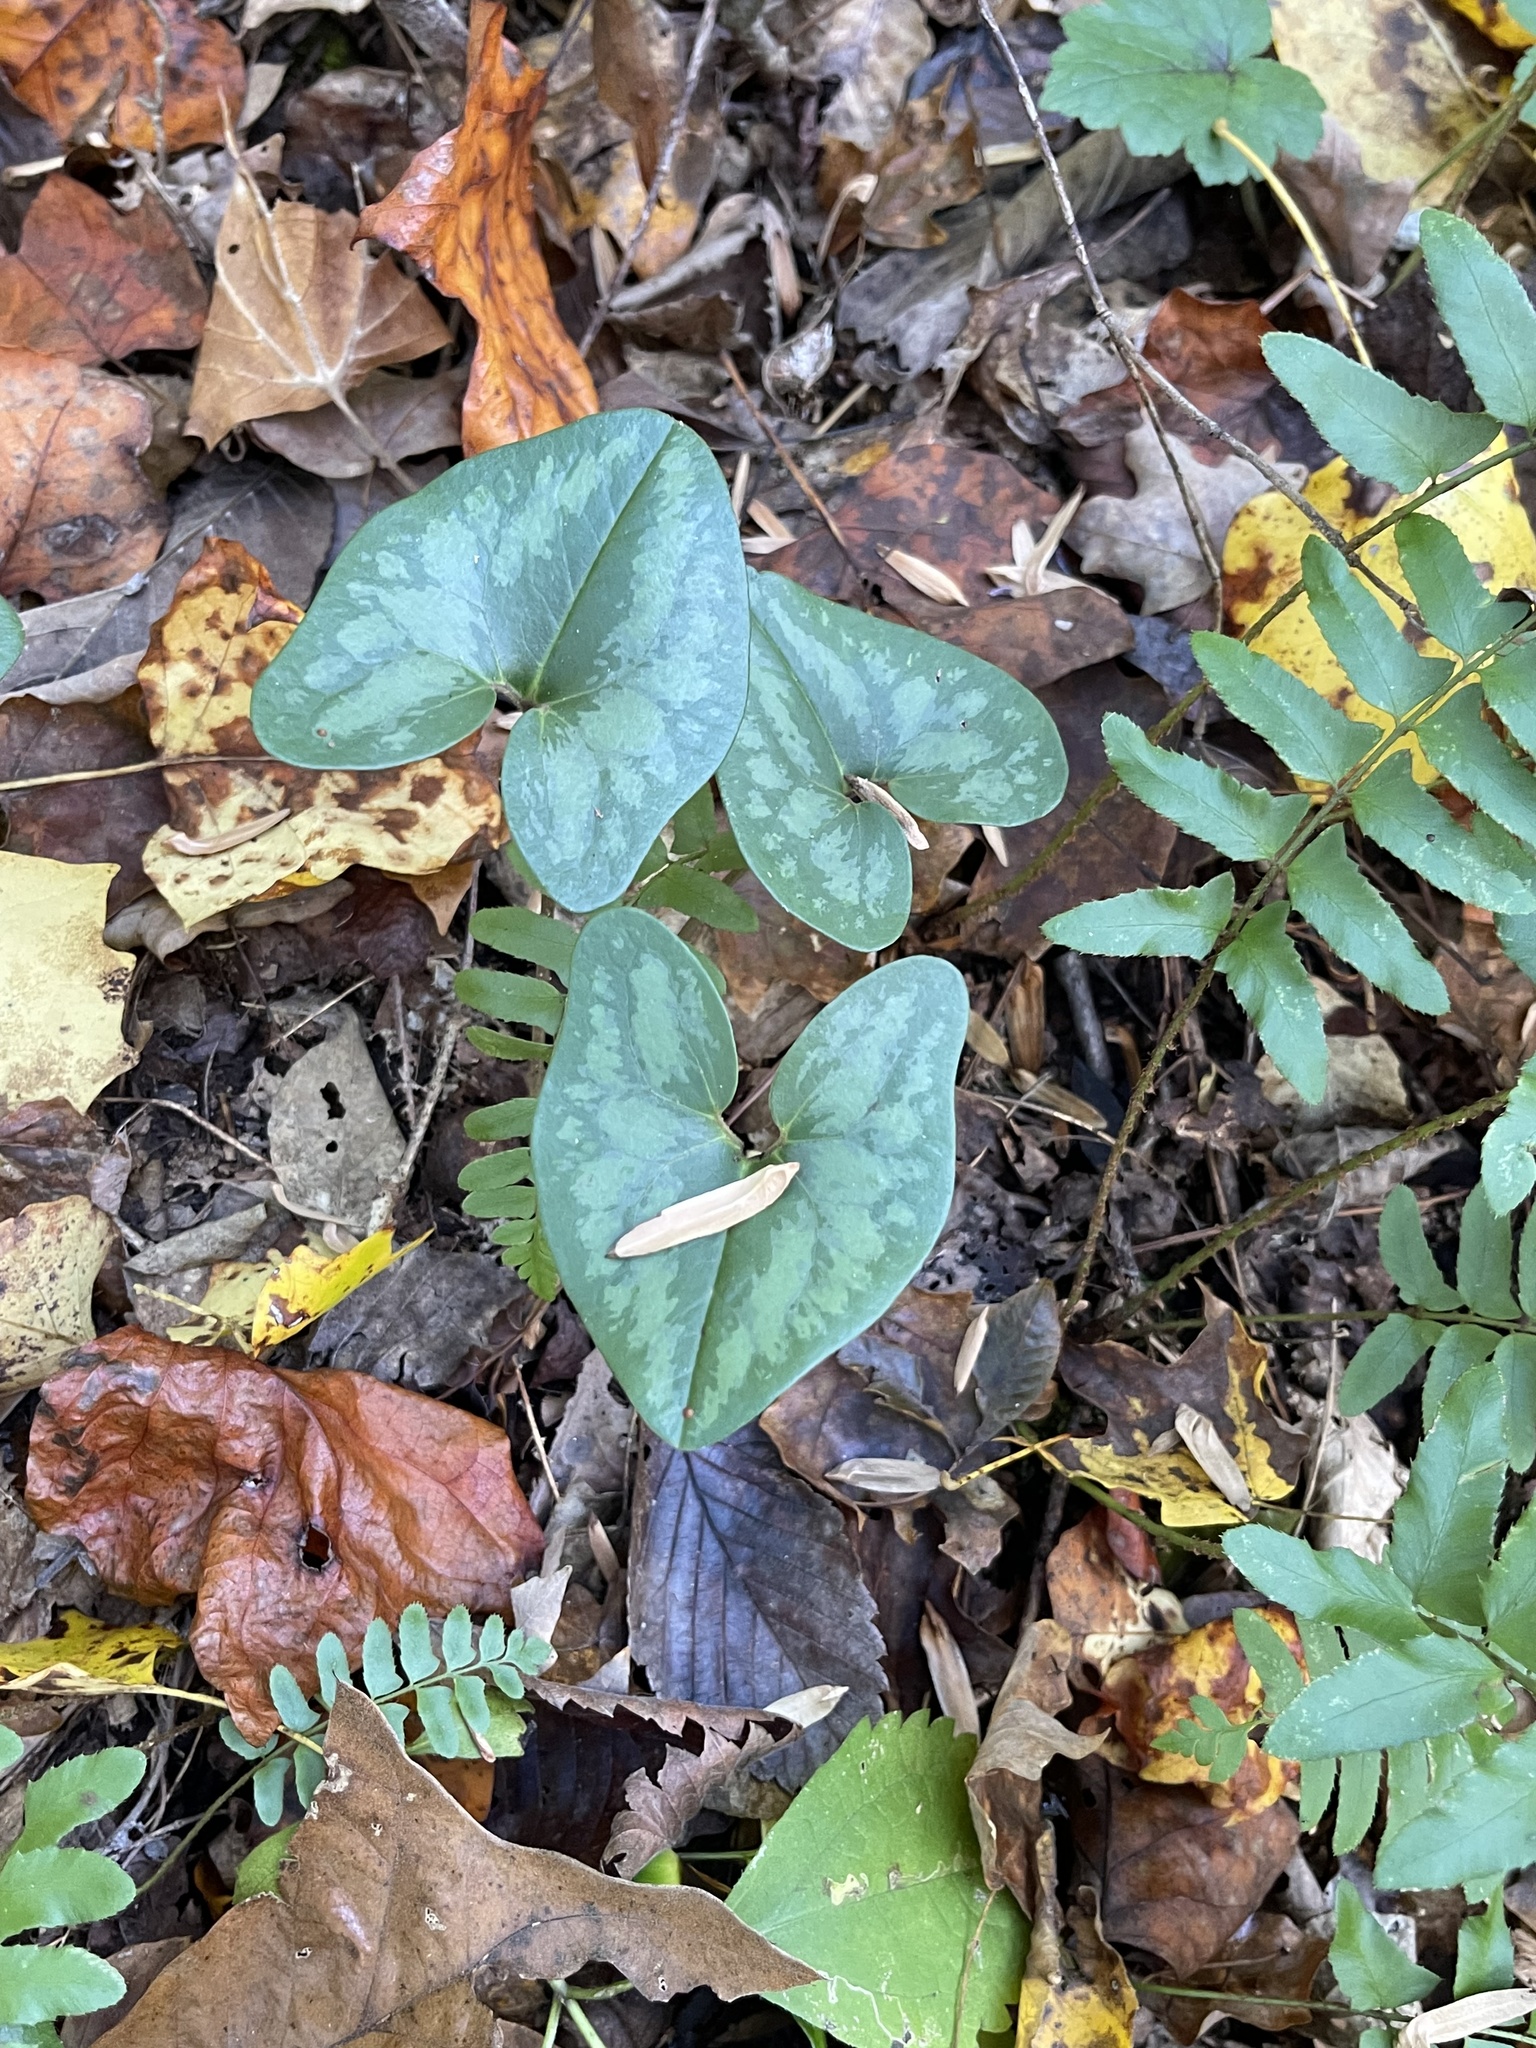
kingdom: Plantae
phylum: Tracheophyta
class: Magnoliopsida
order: Piperales
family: Aristolochiaceae
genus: Hexastylis
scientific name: Hexastylis arifolia
